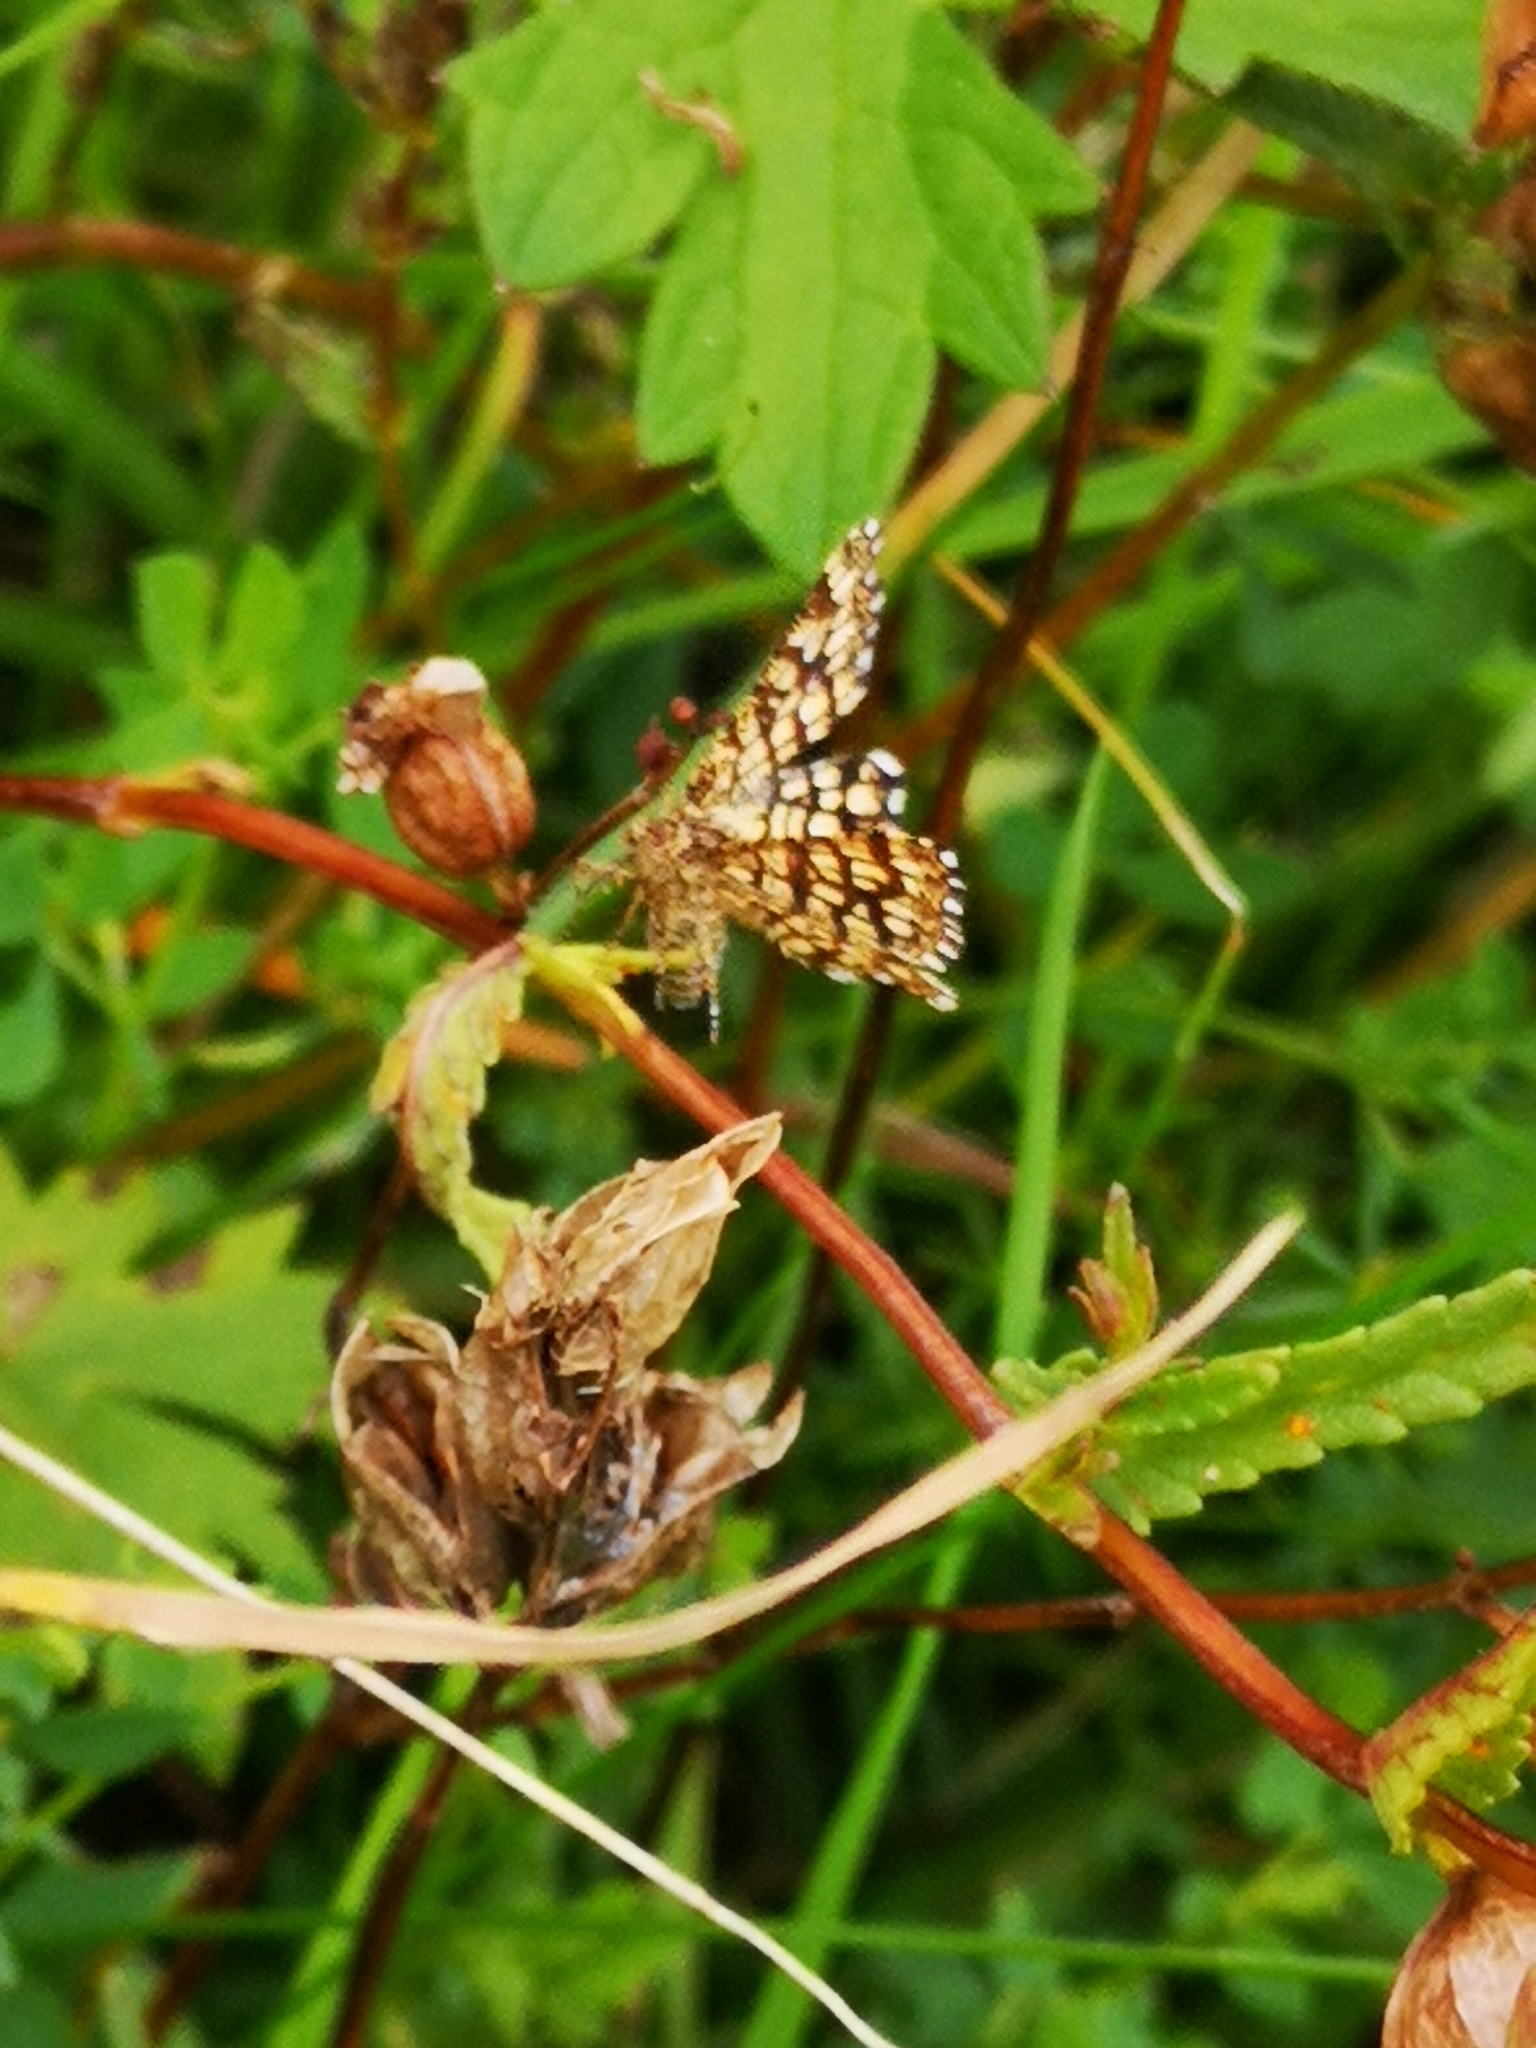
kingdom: Animalia
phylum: Arthropoda
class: Insecta
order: Lepidoptera
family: Geometridae
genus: Chiasmia
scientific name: Chiasmia clathrata
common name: Latticed heath
